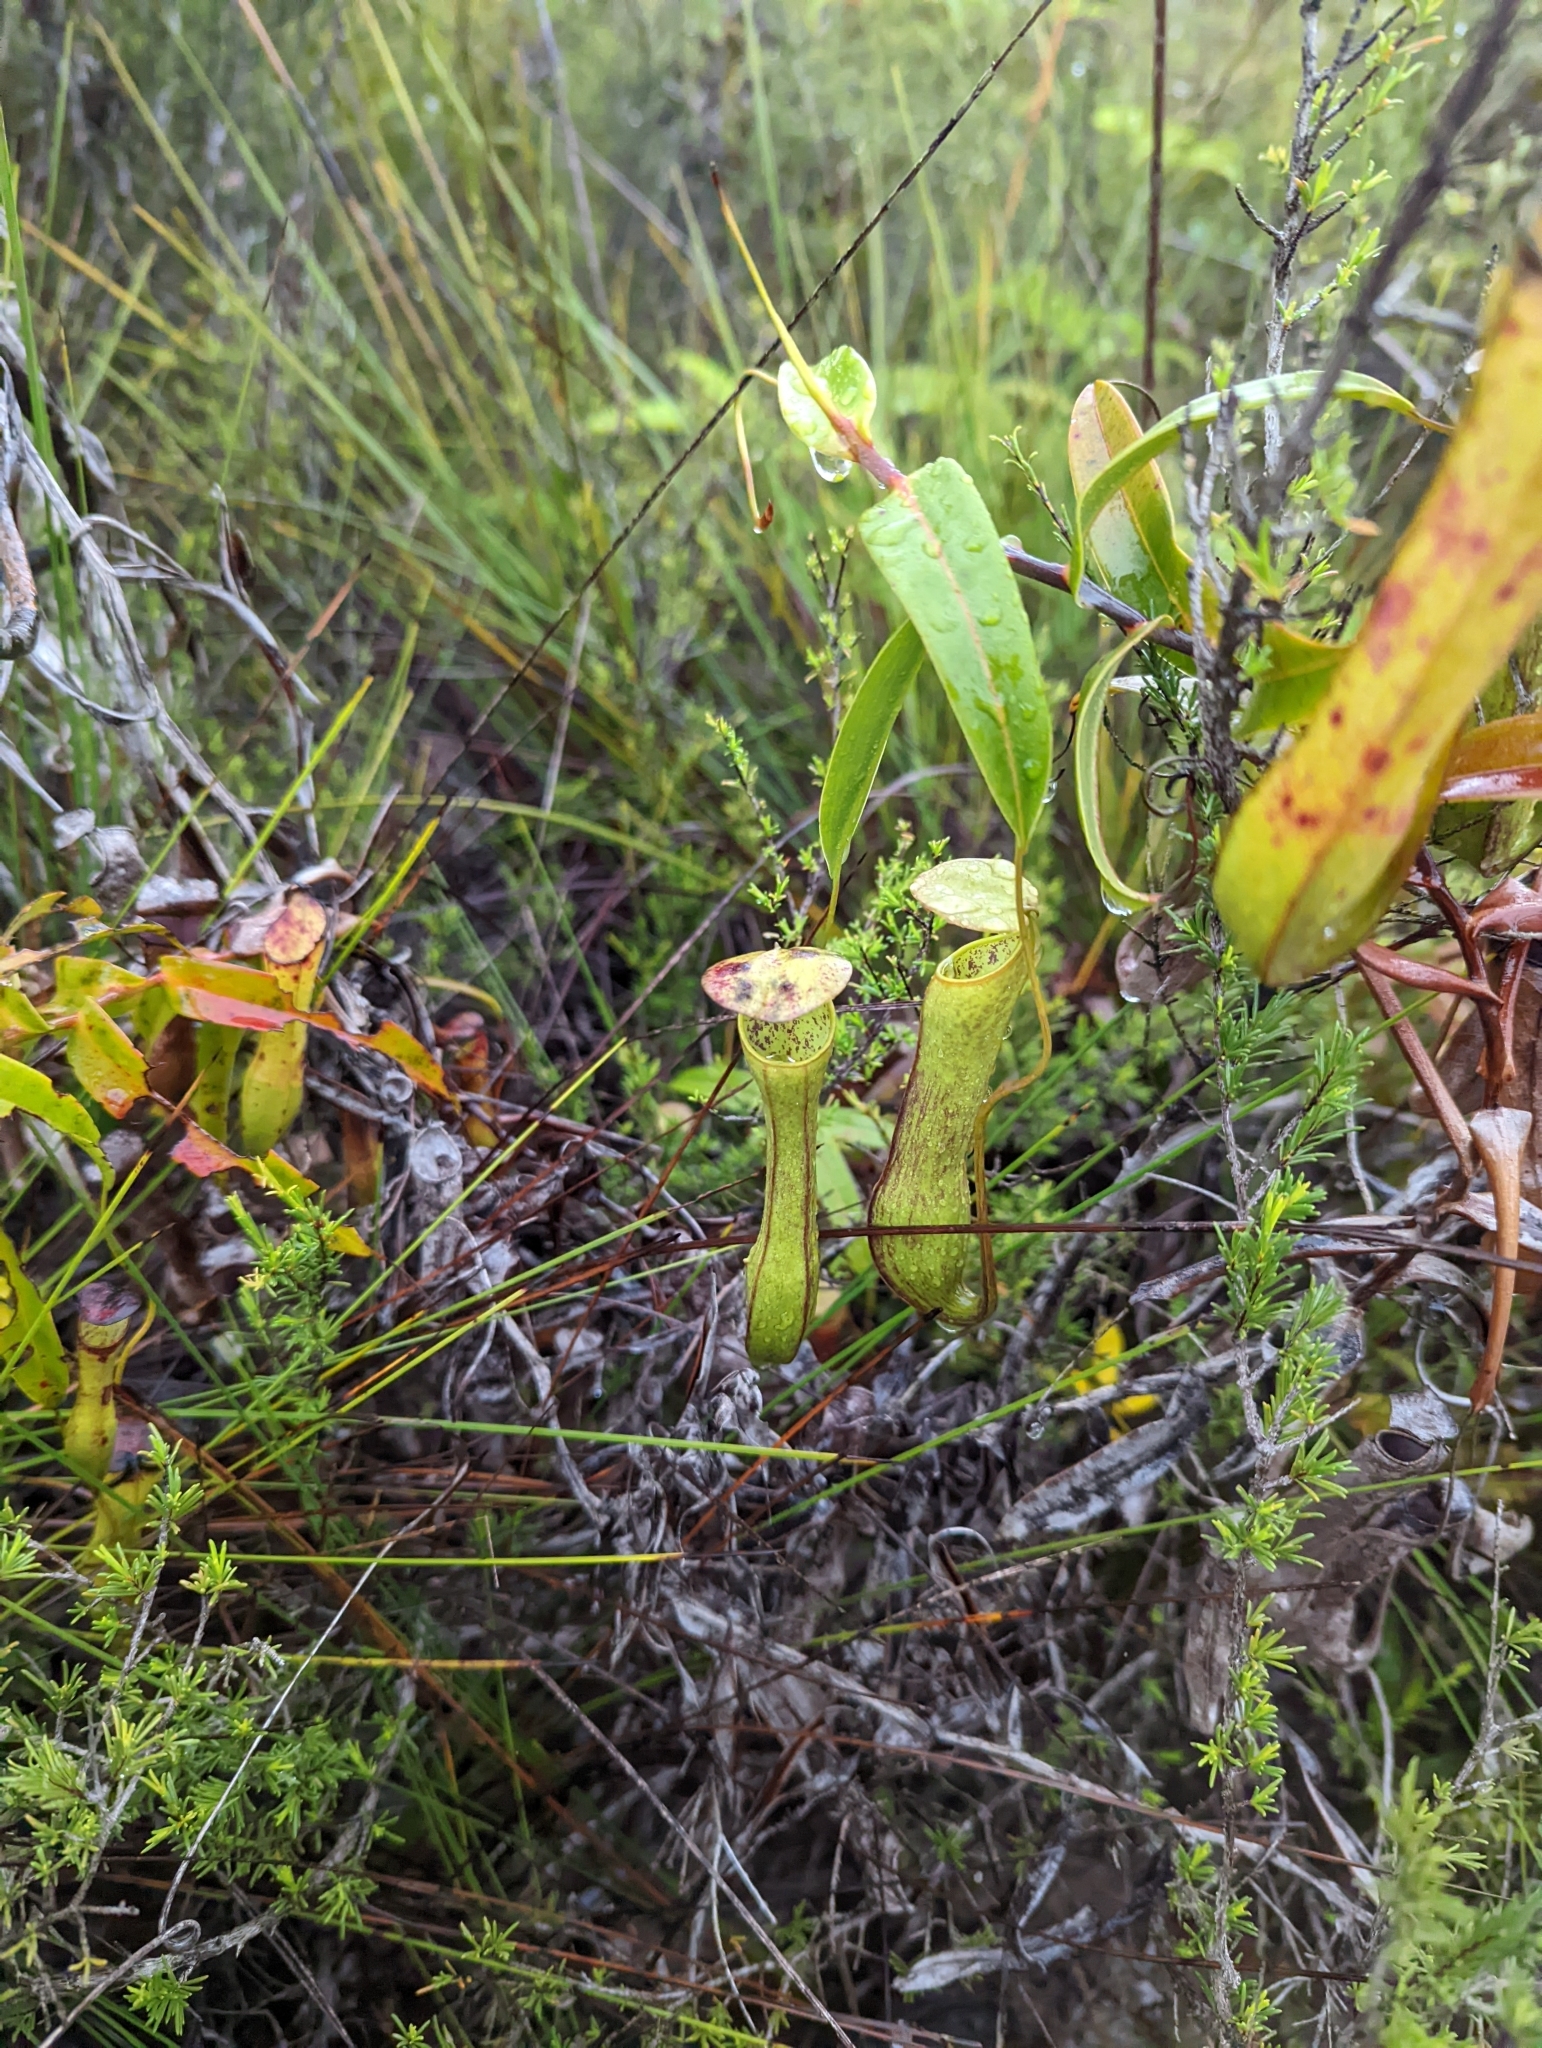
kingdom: Plantae
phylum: Tracheophyta
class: Magnoliopsida
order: Caryophyllales
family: Nepenthaceae
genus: Nepenthes
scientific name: Nepenthes gracilis
